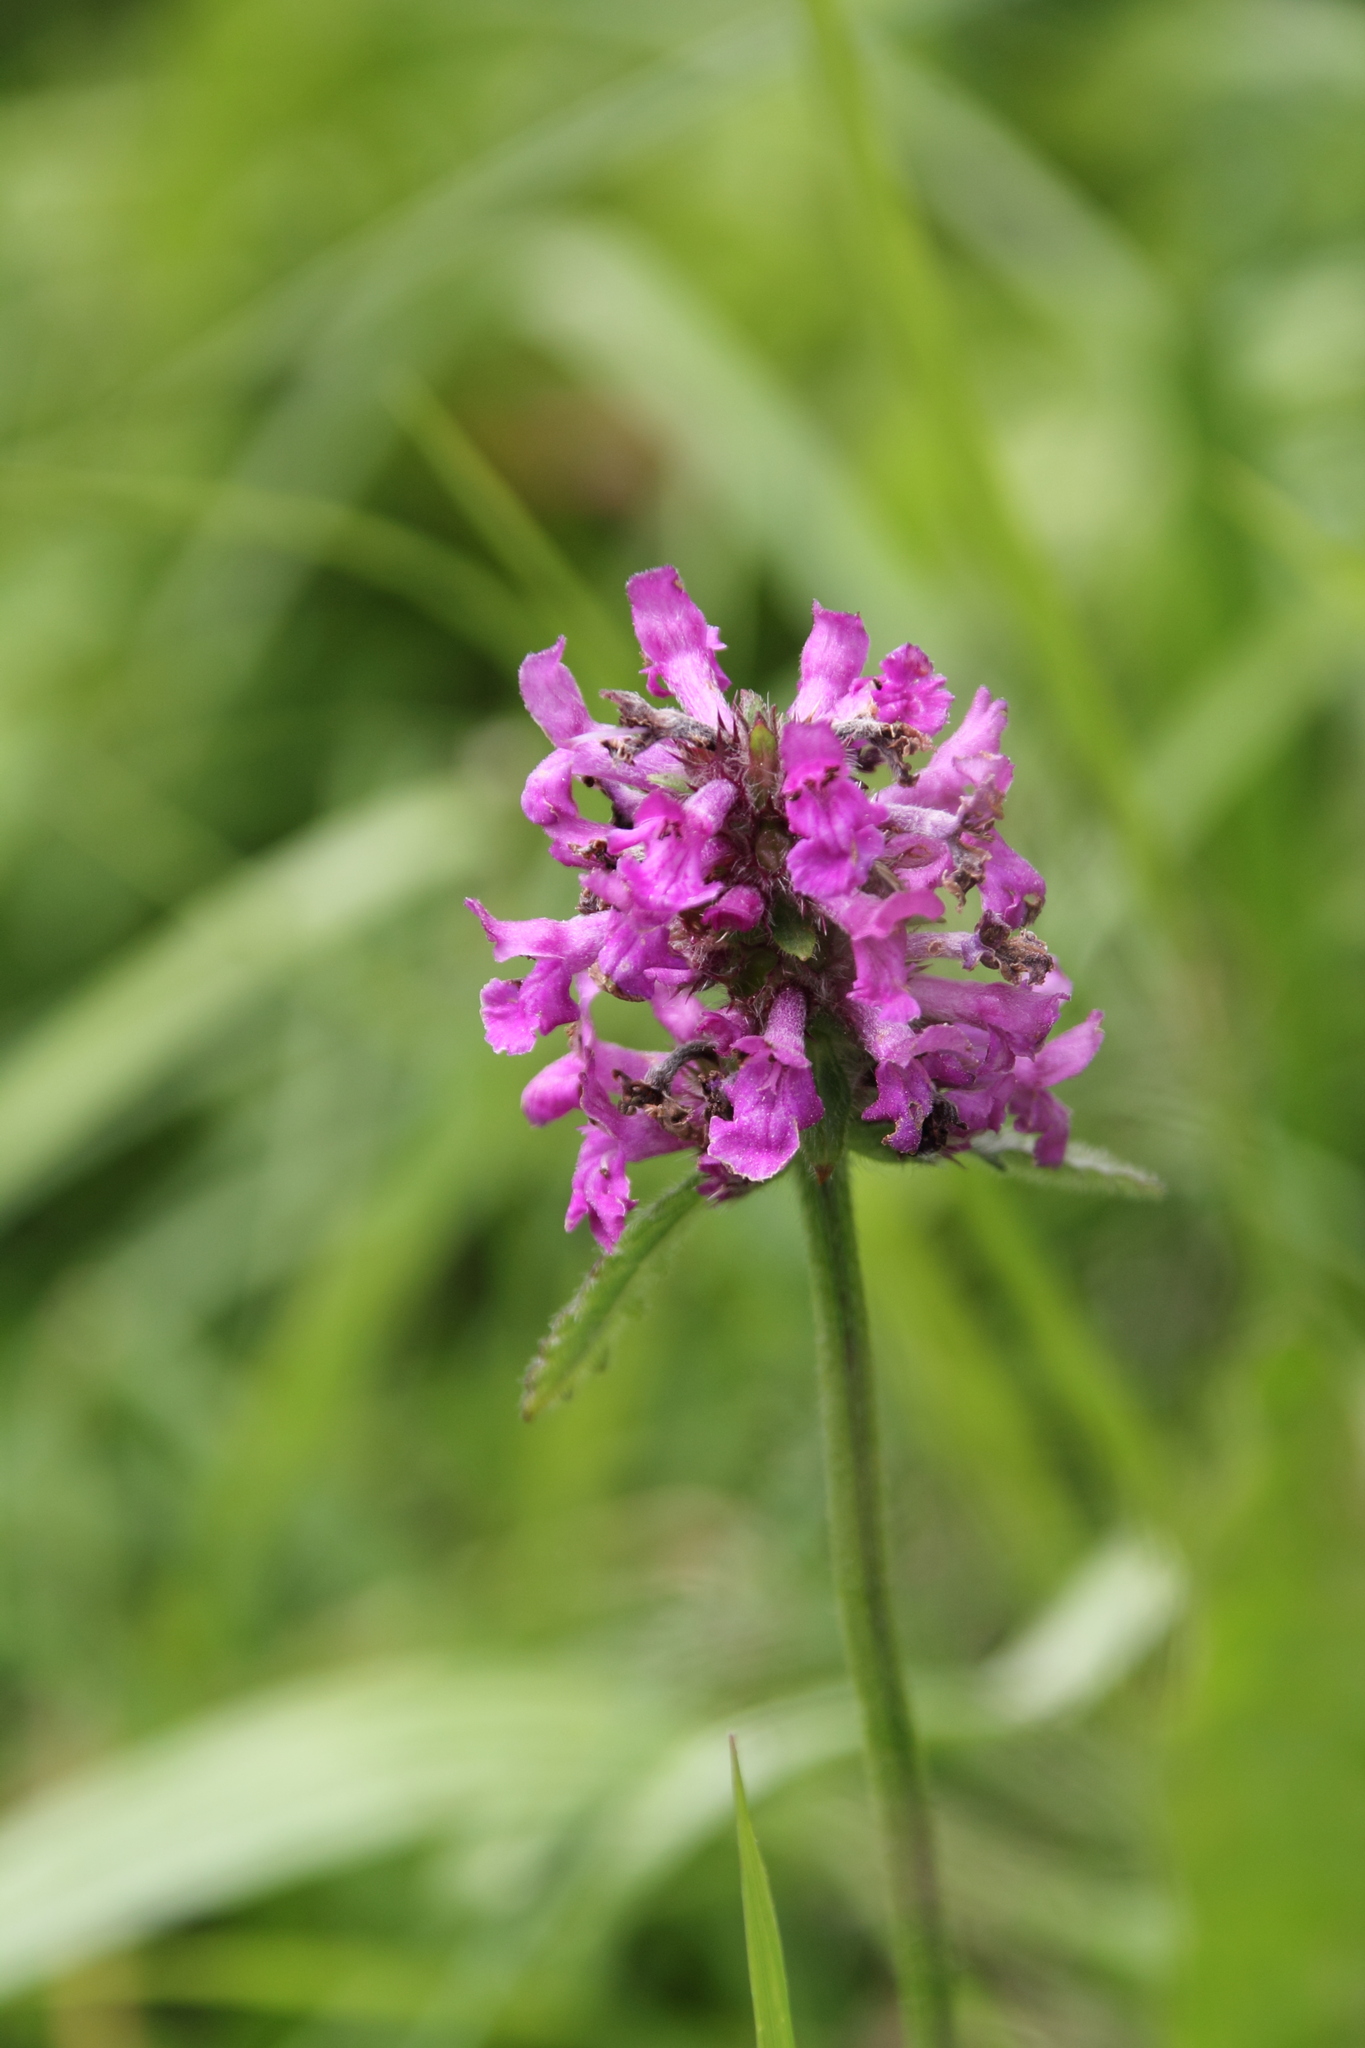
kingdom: Plantae
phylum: Tracheophyta
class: Magnoliopsida
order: Lamiales
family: Lamiaceae
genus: Betonica
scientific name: Betonica officinalis
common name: Bishop's-wort
